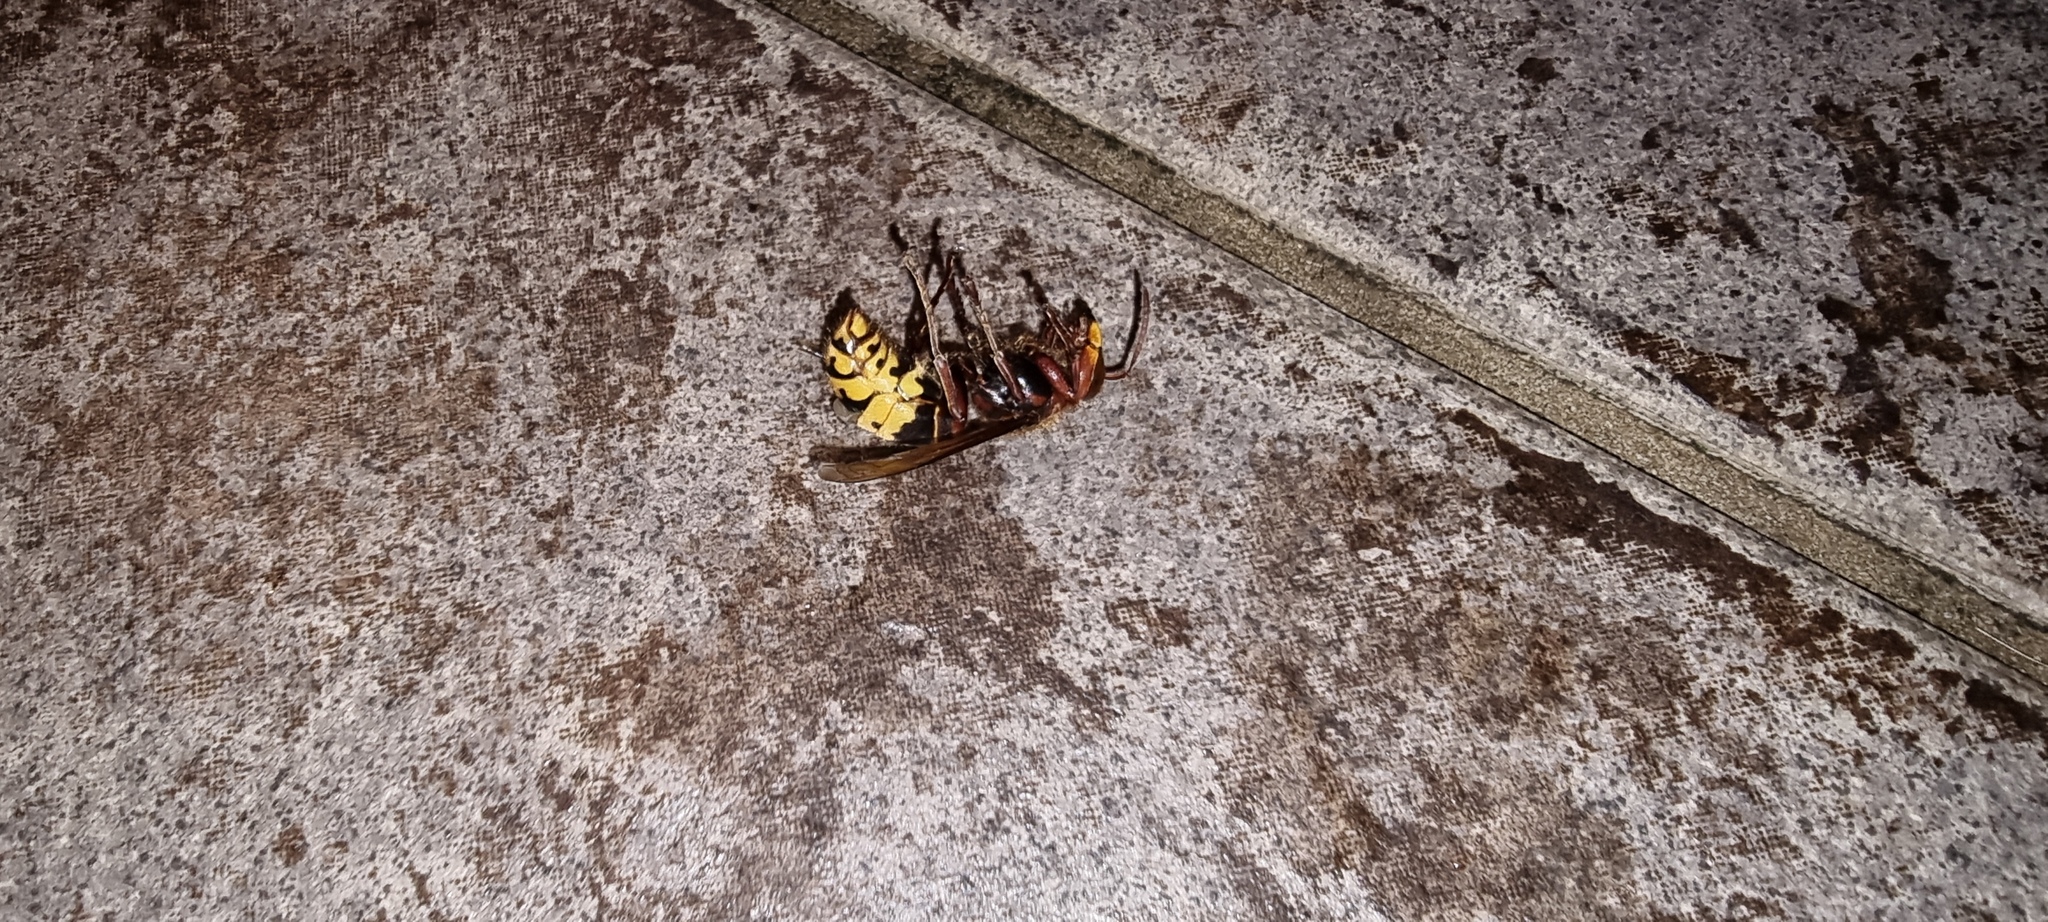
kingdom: Animalia
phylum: Arthropoda
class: Insecta
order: Hymenoptera
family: Vespidae
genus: Vespa
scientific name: Vespa crabro
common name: Hornet
